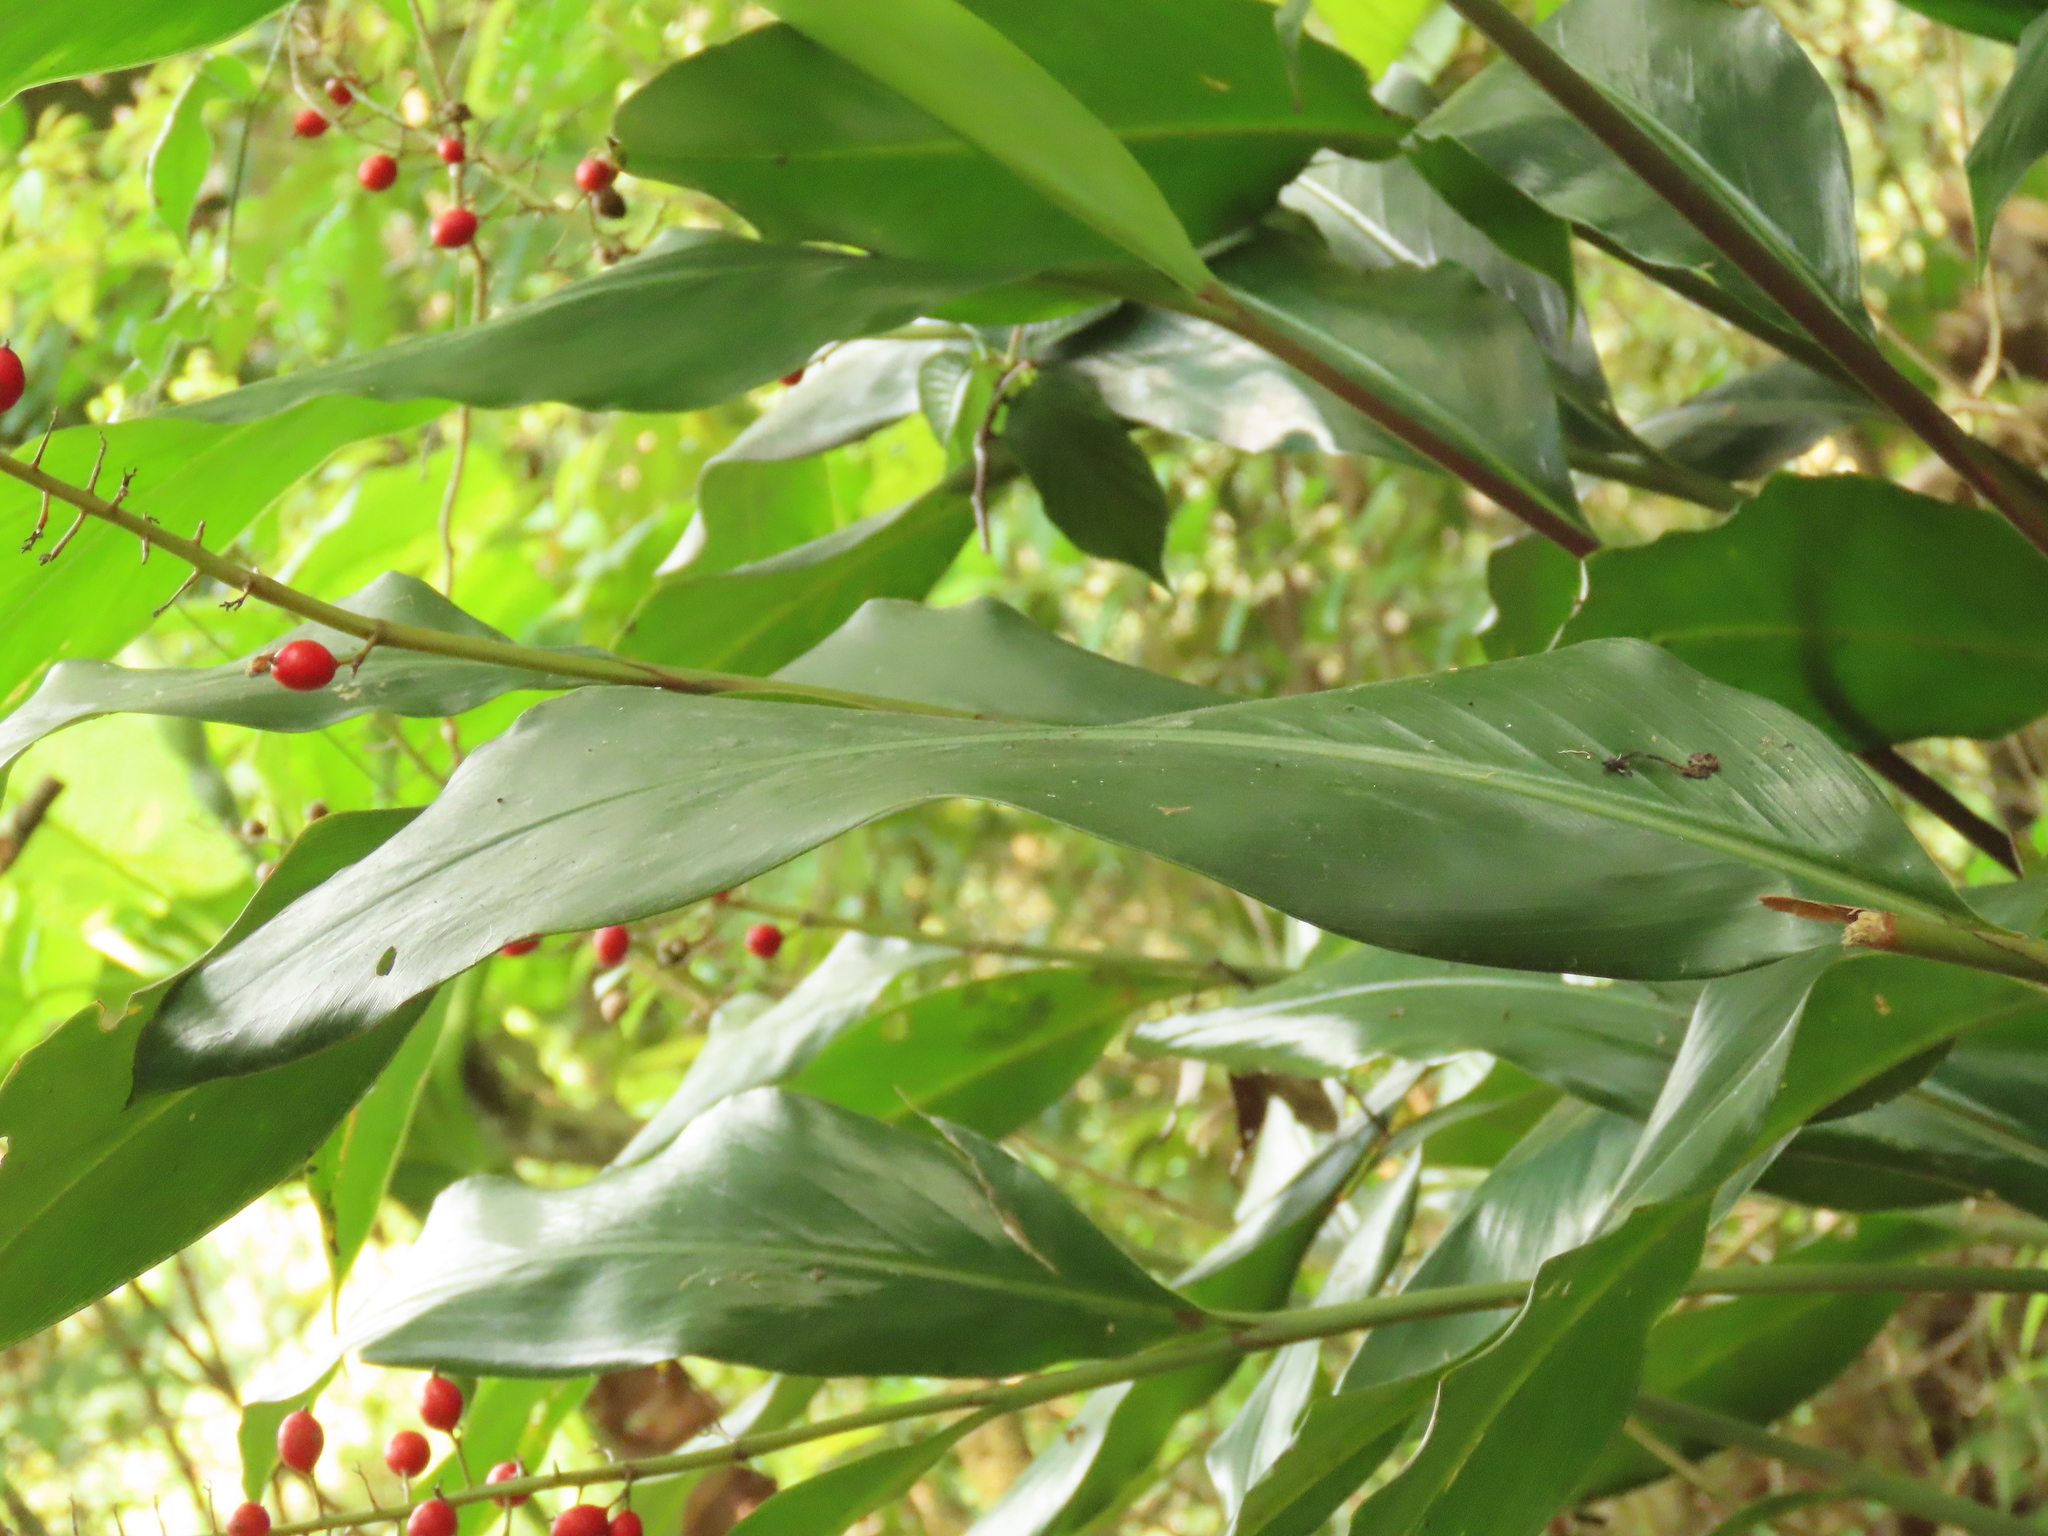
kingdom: Plantae
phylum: Tracheophyta
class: Liliopsida
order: Zingiberales
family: Zingiberaceae
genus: Alpinia
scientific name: Alpinia intermedia
